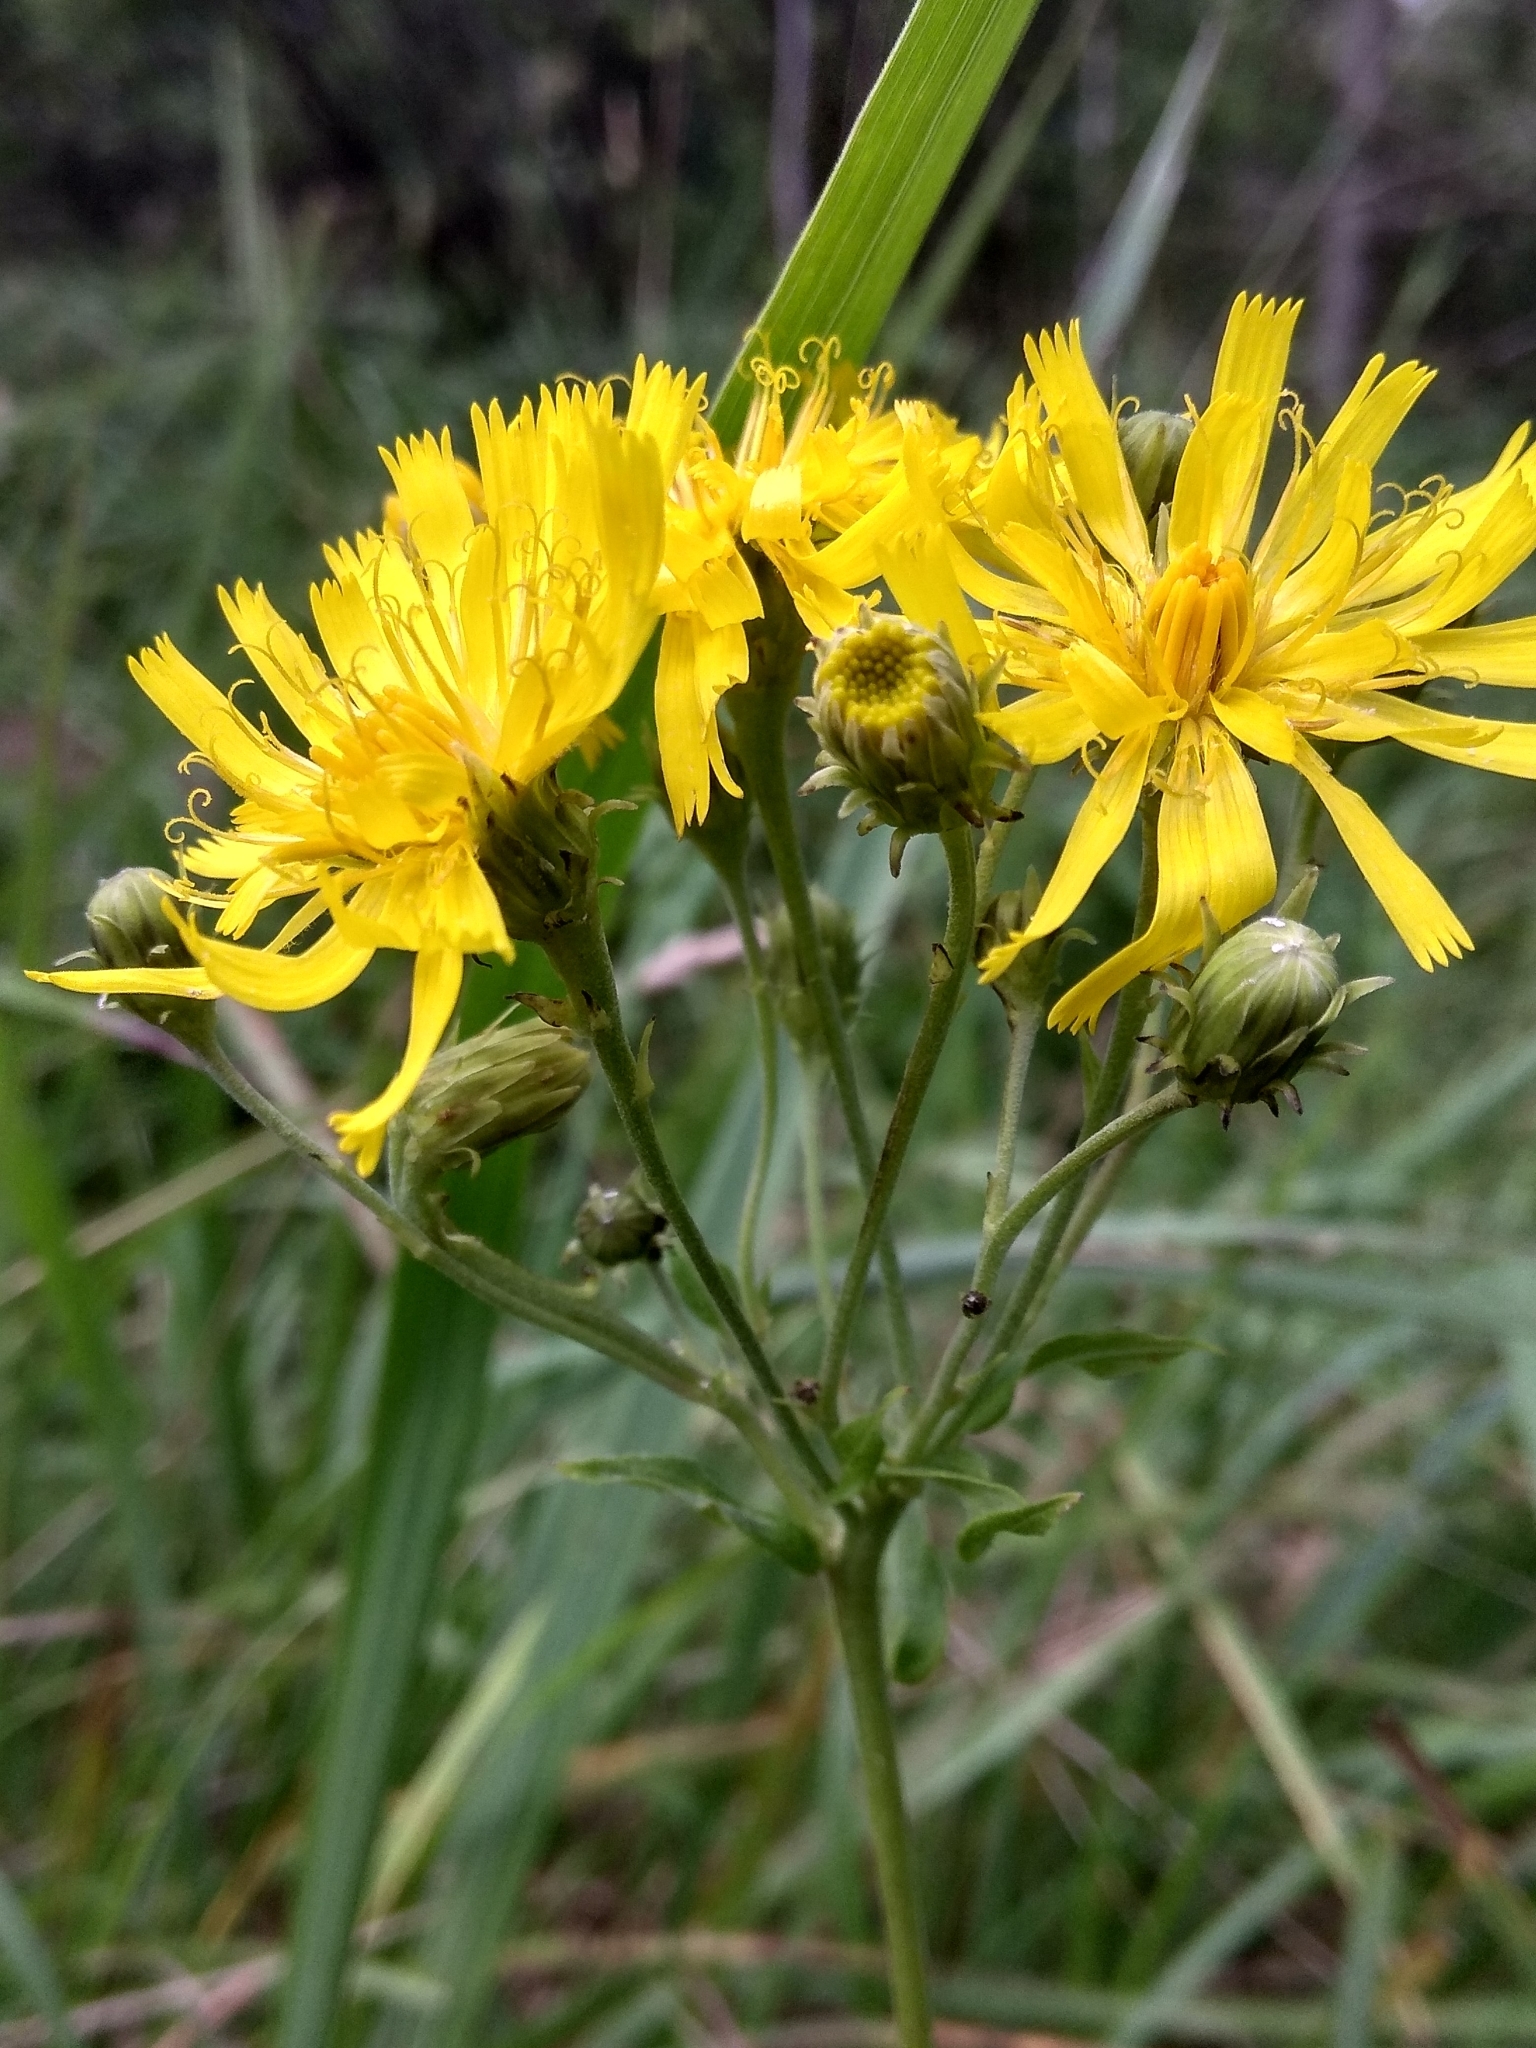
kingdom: Plantae
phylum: Tracheophyta
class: Magnoliopsida
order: Asterales
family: Asteraceae
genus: Hieracium
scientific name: Hieracium umbellatum
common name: Northern hawkweed
